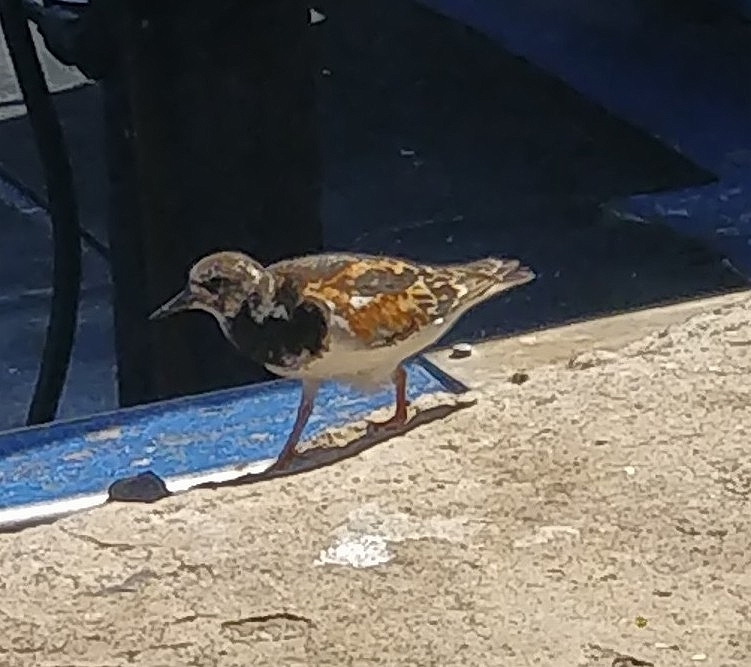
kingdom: Animalia
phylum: Chordata
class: Aves
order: Charadriiformes
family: Scolopacidae
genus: Arenaria
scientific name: Arenaria interpres
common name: Ruddy turnstone
